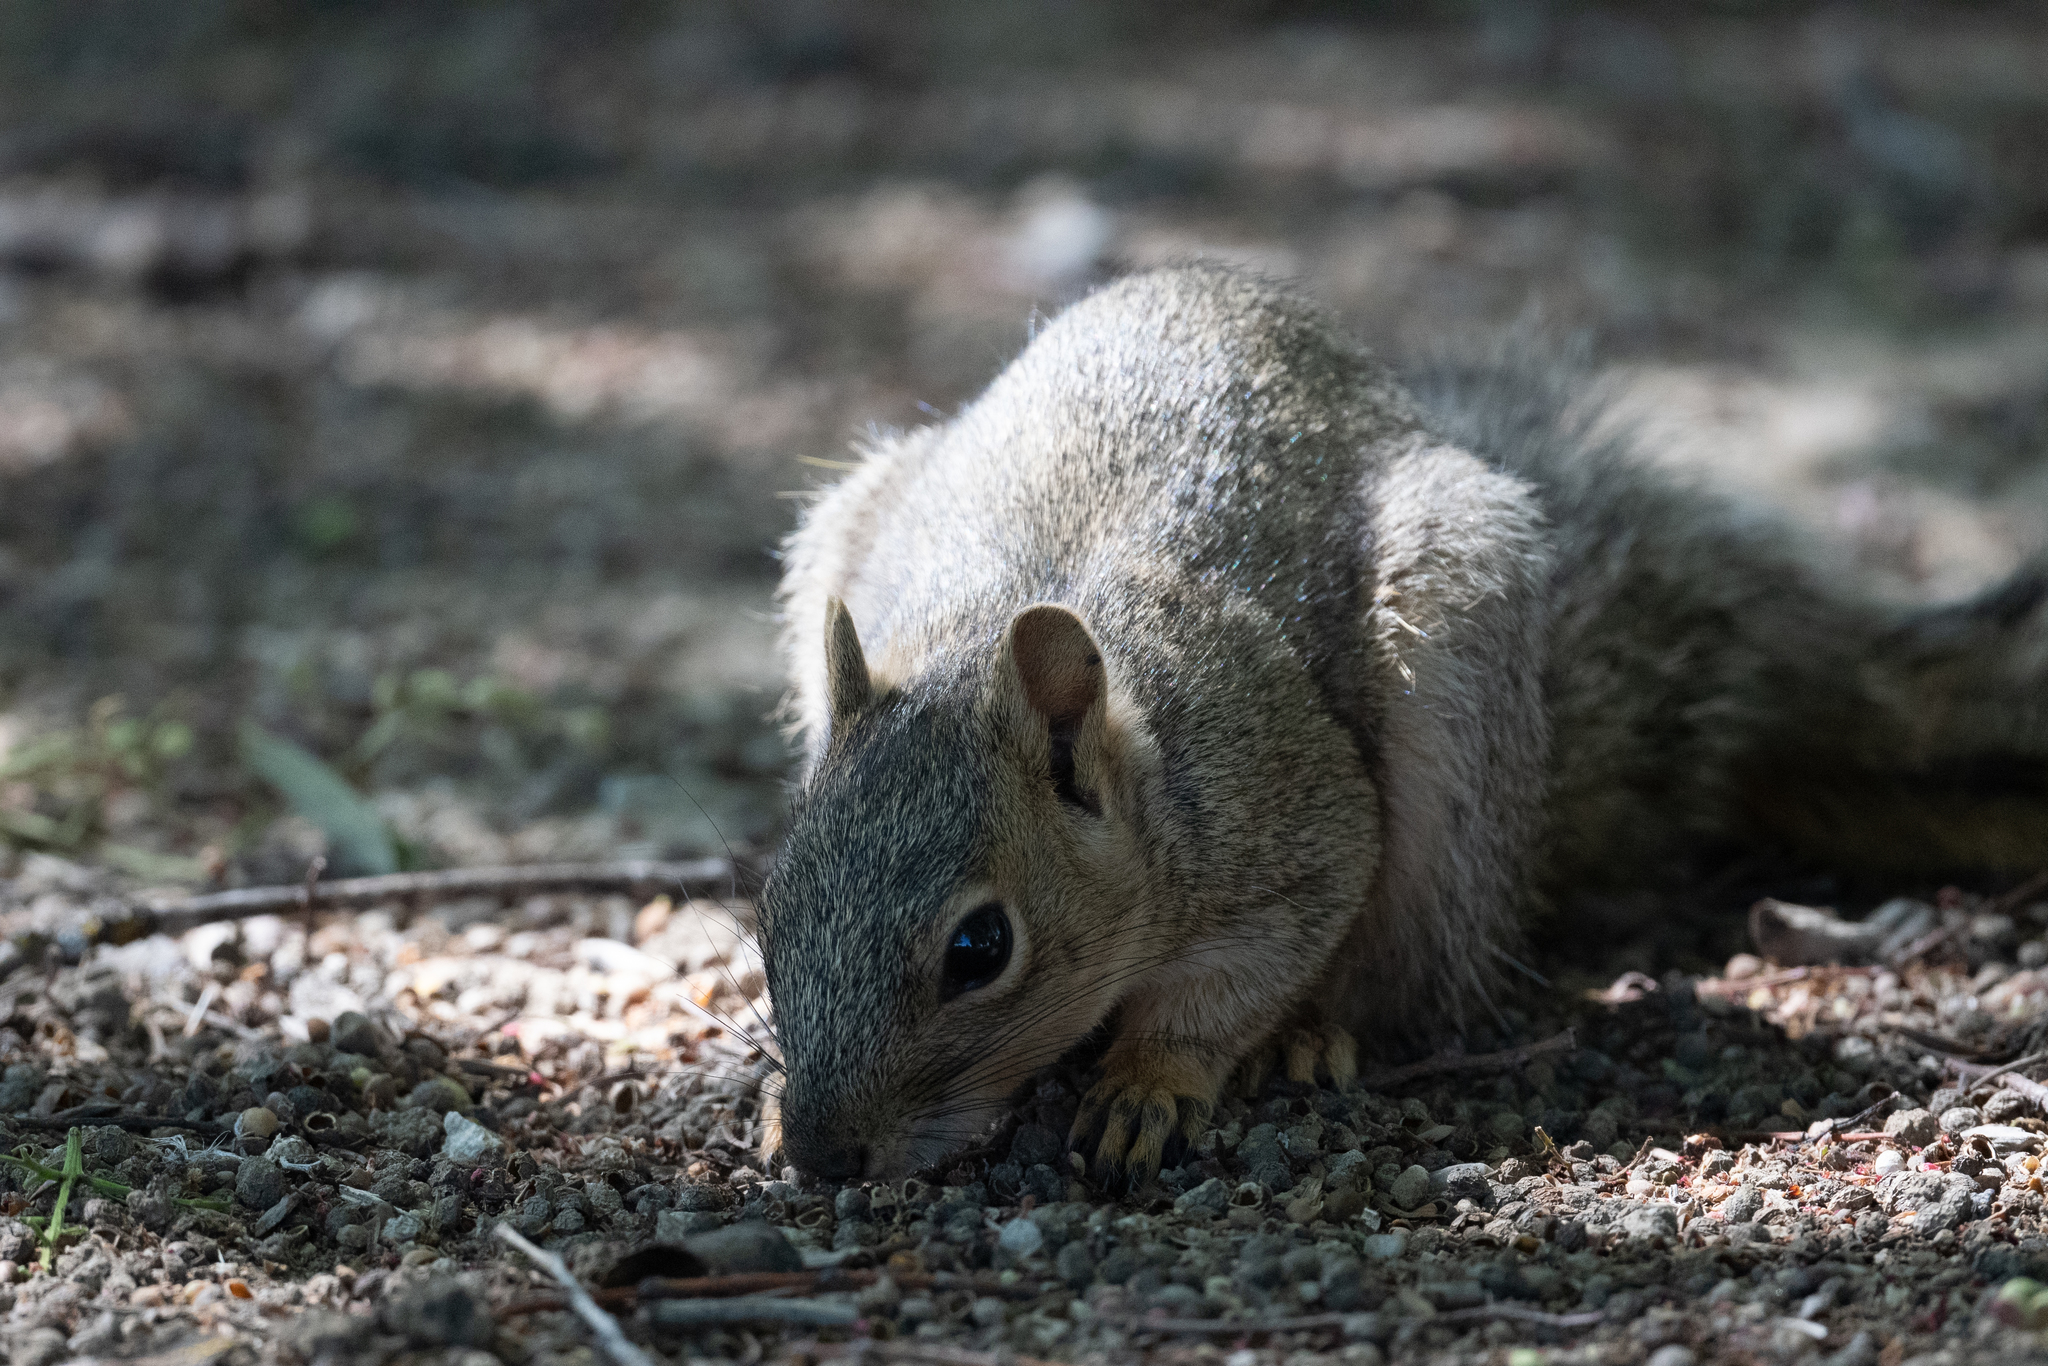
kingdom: Animalia
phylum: Chordata
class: Mammalia
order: Rodentia
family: Sciuridae
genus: Sciurus
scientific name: Sciurus niger
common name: Fox squirrel
